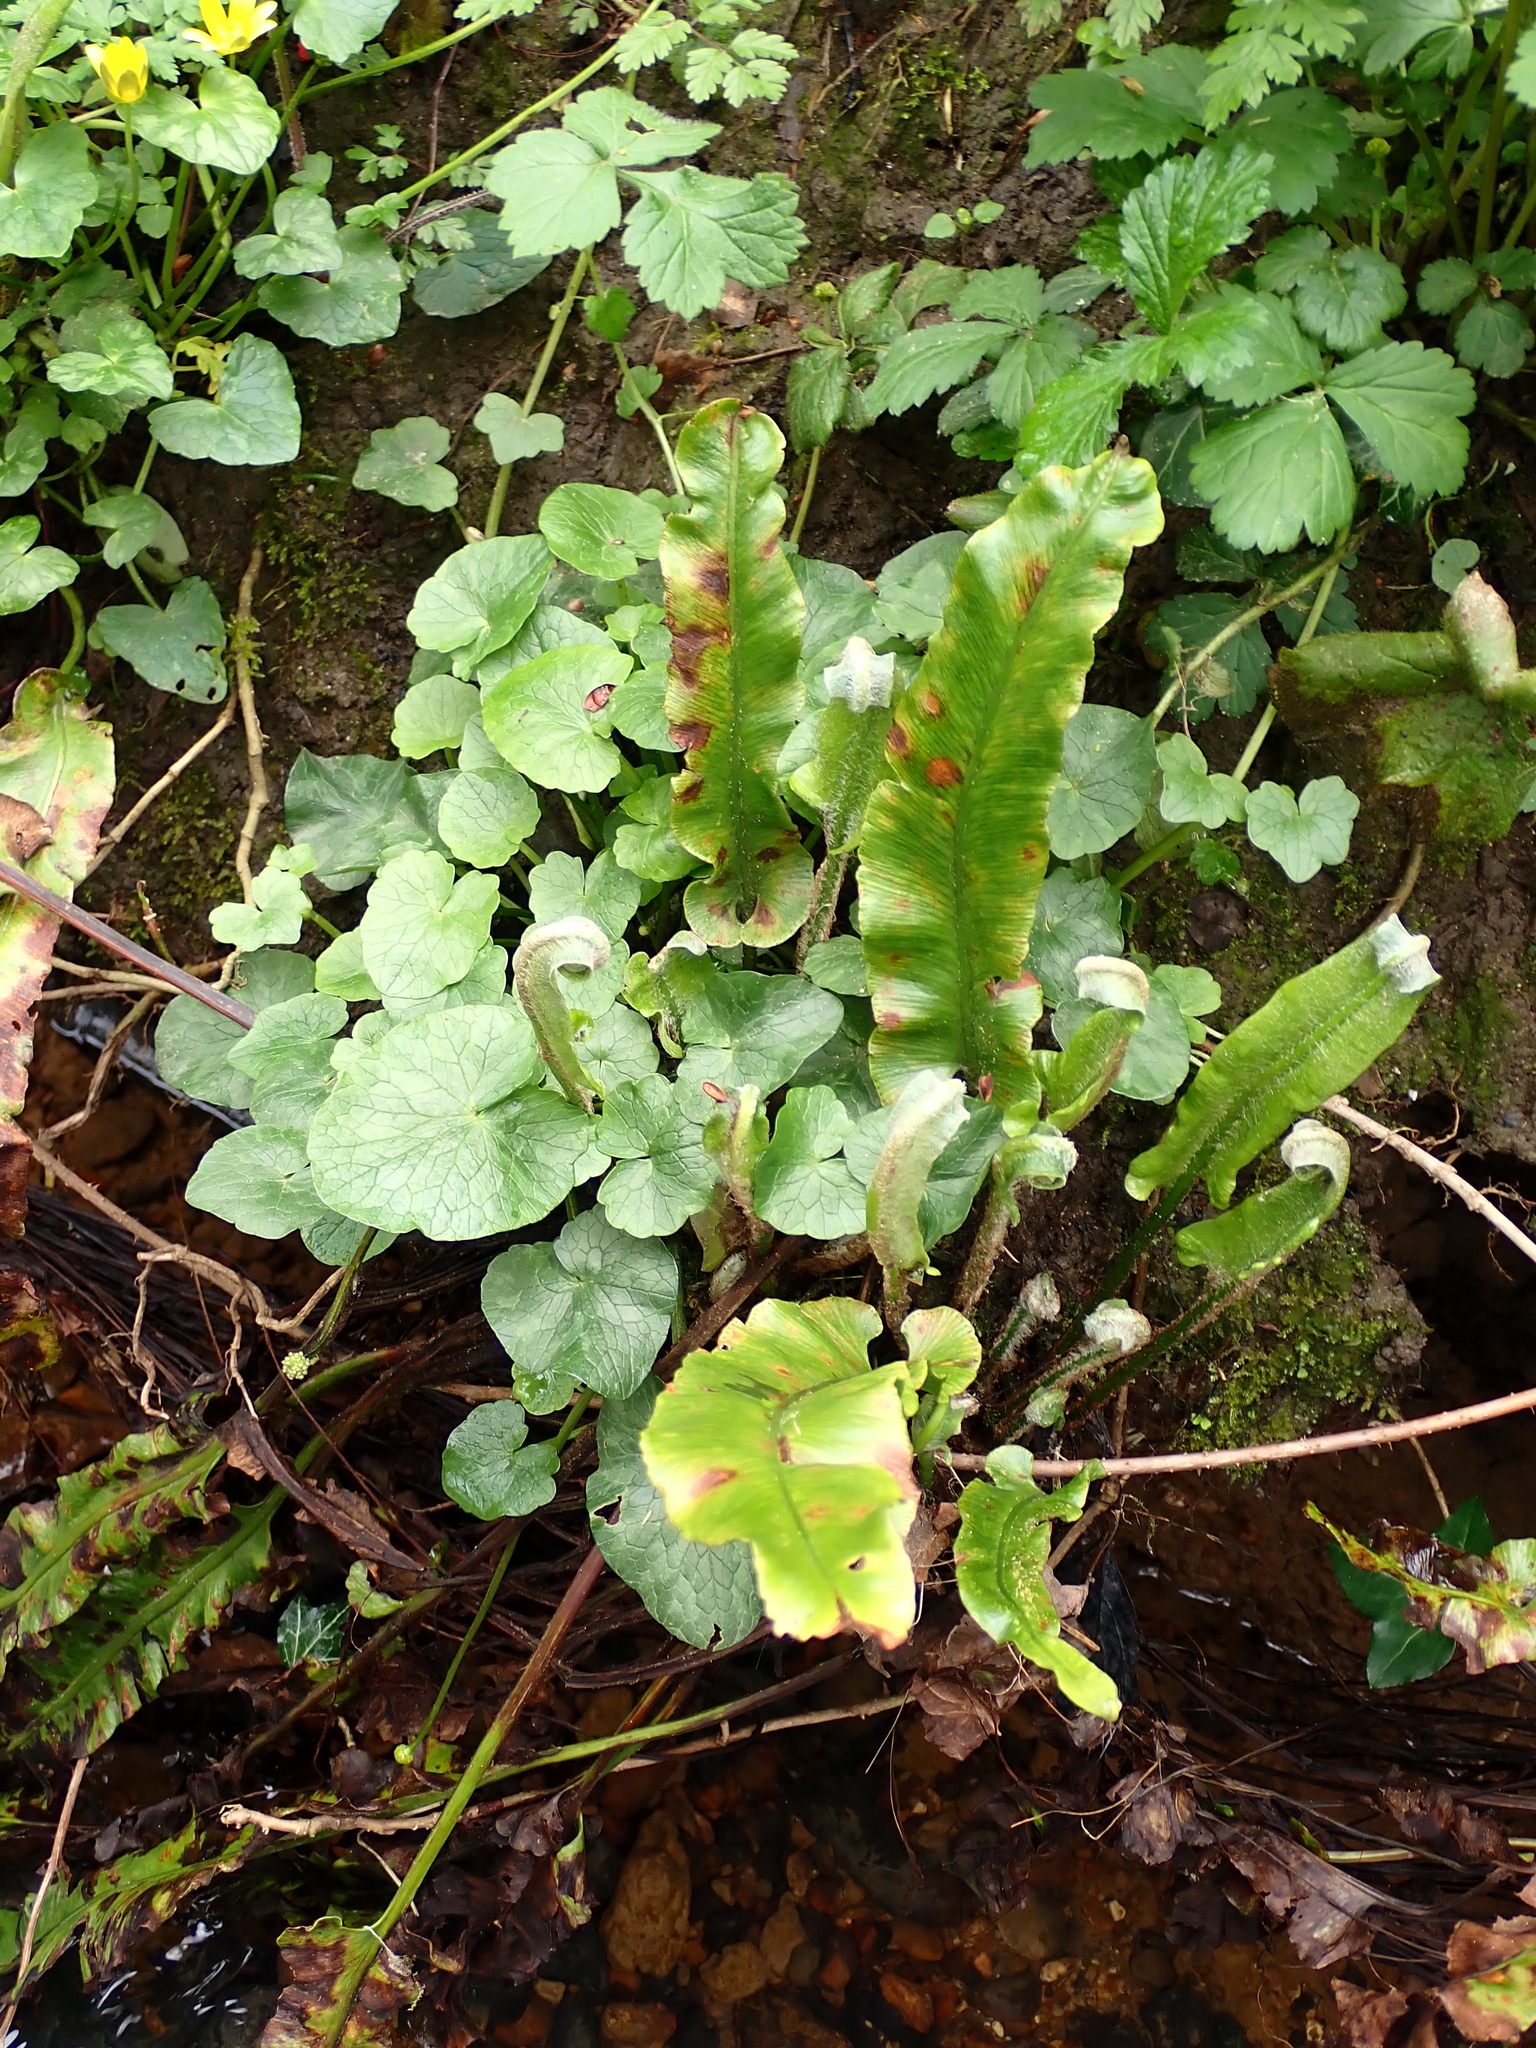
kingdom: Plantae
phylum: Tracheophyta
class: Polypodiopsida
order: Polypodiales
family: Aspleniaceae
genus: Asplenium
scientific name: Asplenium scolopendrium
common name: Hart's-tongue fern
